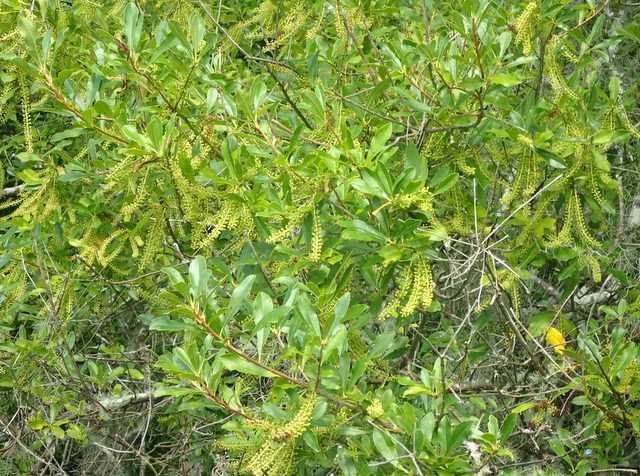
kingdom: Plantae
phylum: Tracheophyta
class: Magnoliopsida
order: Ericales
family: Cyrillaceae
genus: Cyrilla
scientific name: Cyrilla racemiflora
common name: Black titi
